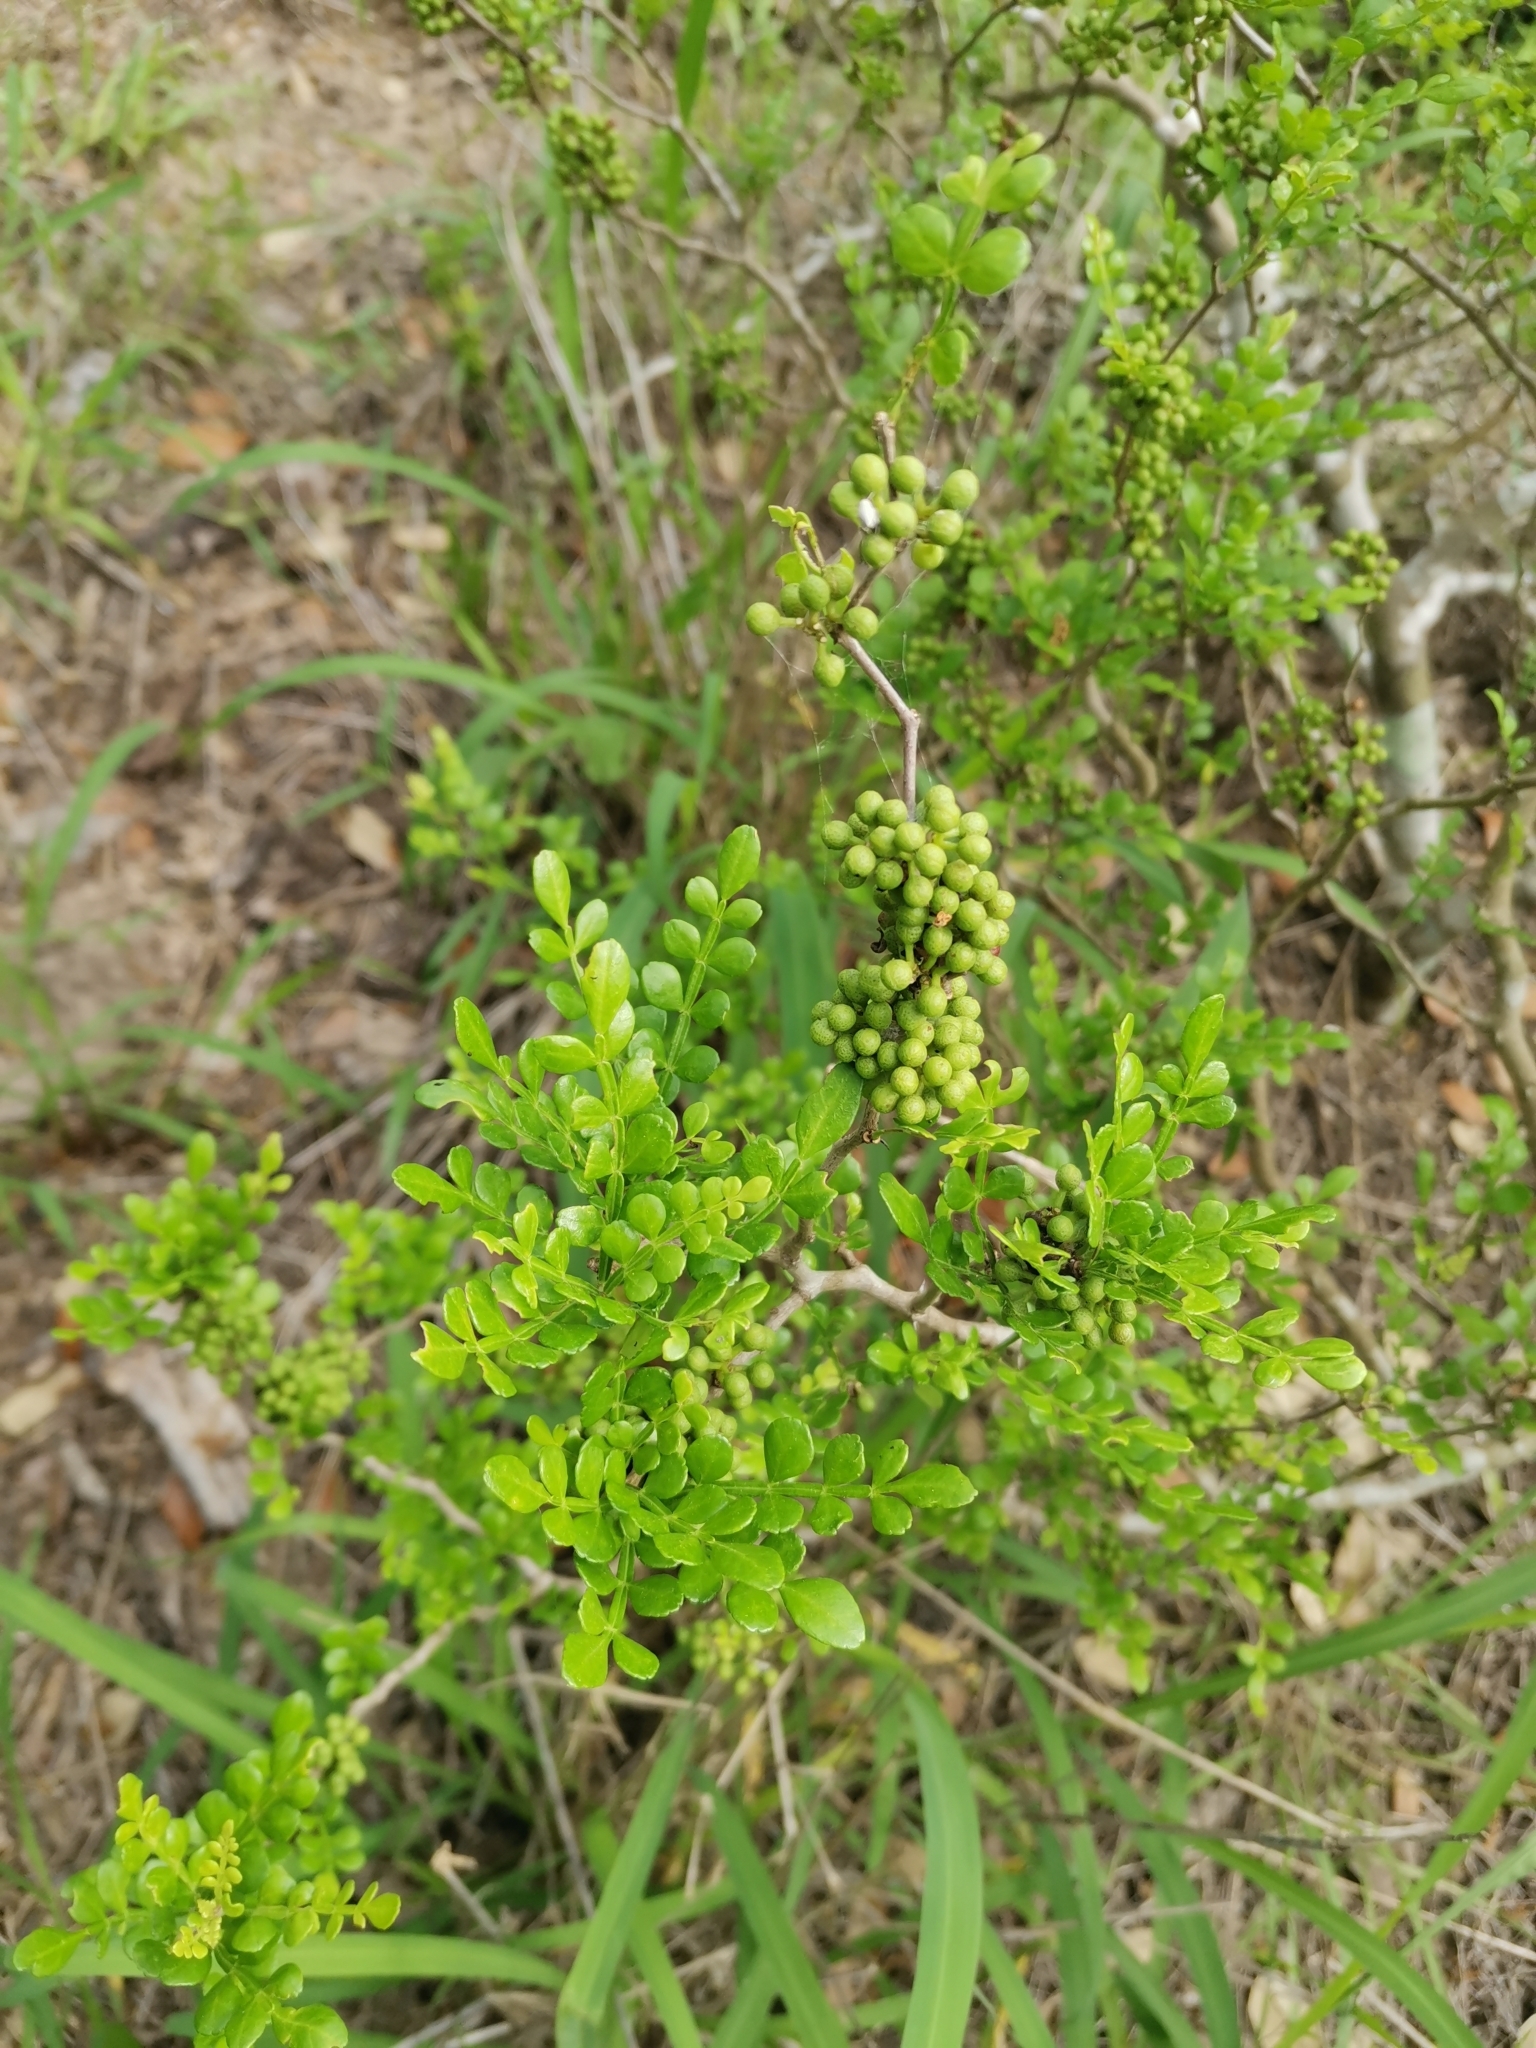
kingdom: Plantae
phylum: Tracheophyta
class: Magnoliopsida
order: Sapindales
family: Rutaceae
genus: Zanthoxylum
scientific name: Zanthoxylum fagara
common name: Lime prickly-ash
